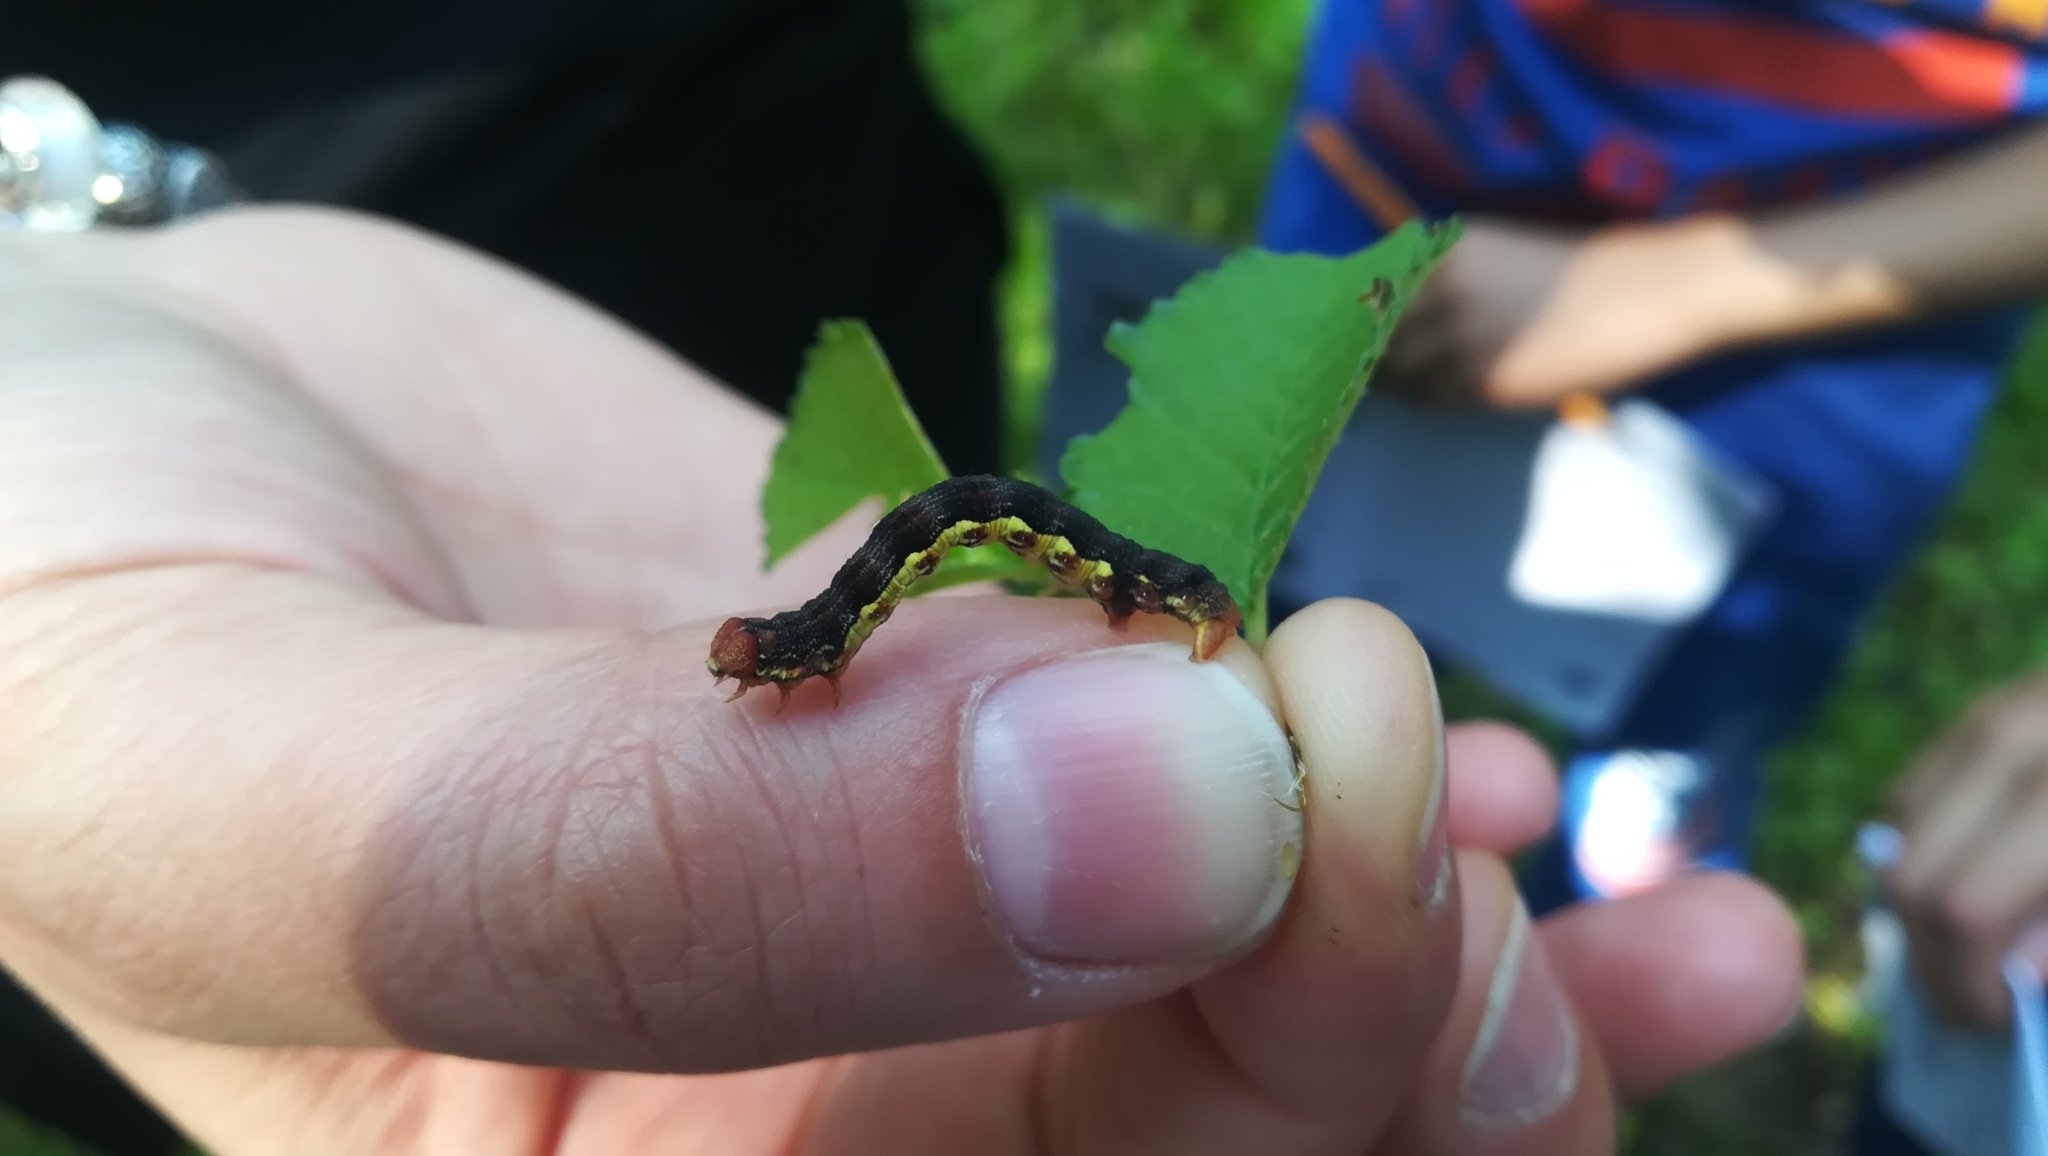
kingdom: Animalia
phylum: Arthropoda
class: Insecta
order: Lepidoptera
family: Geometridae
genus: Erannis
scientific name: Erannis defoliaria
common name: Mottled umber
